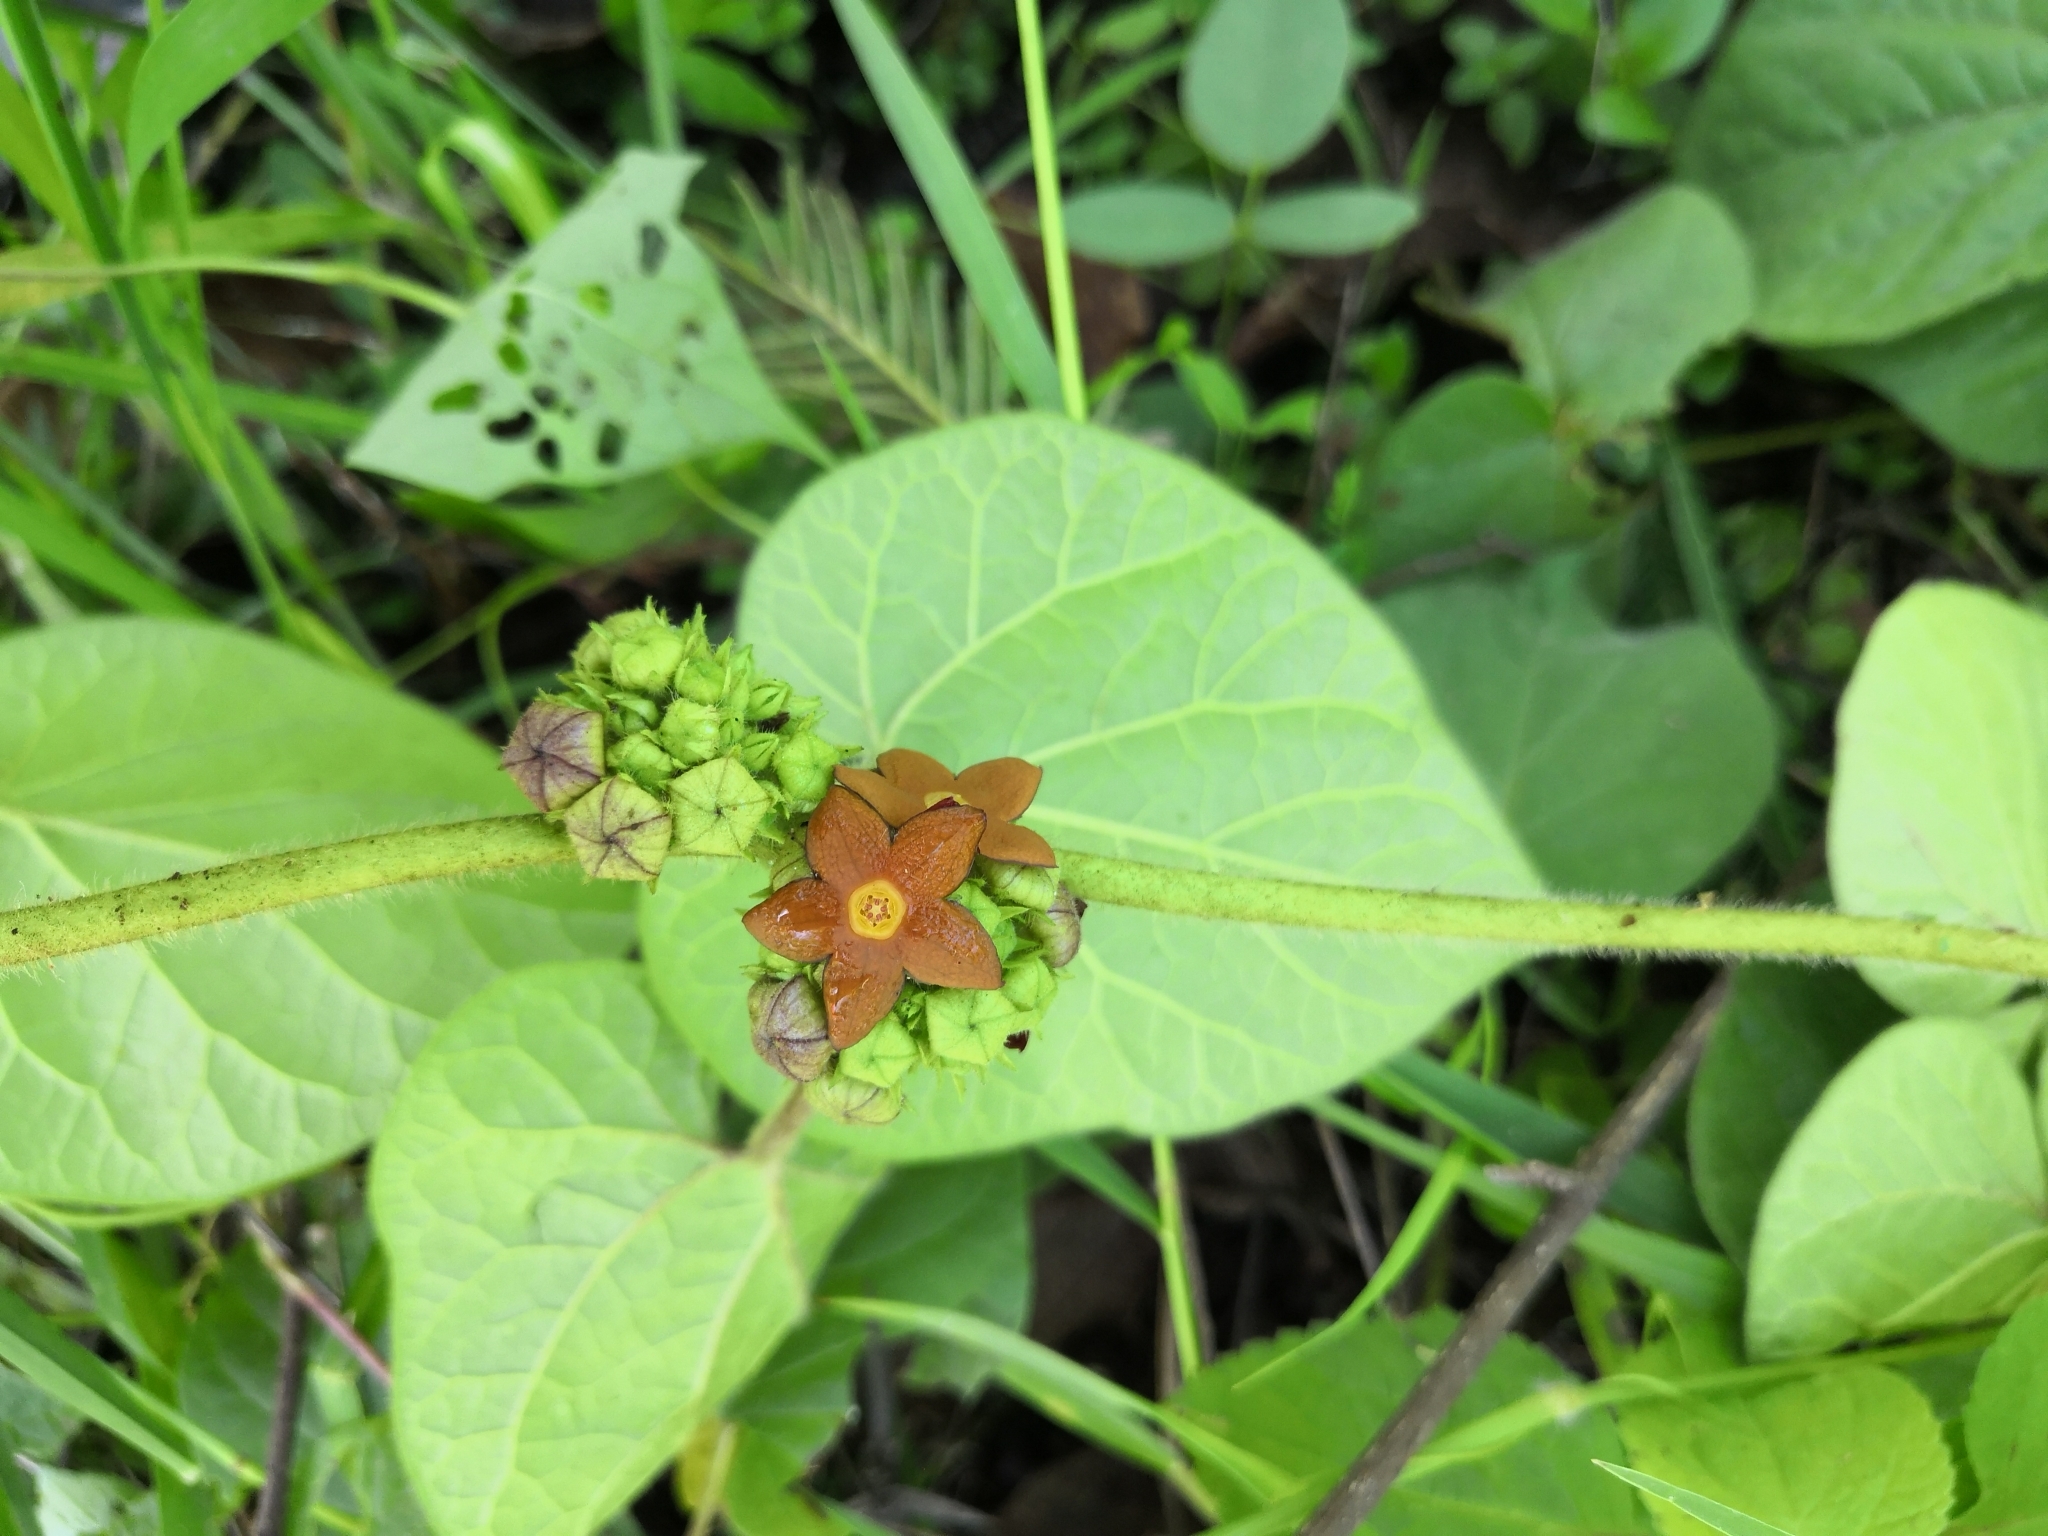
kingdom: Plantae
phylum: Tracheophyta
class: Magnoliopsida
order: Gentianales
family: Apocynaceae
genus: Matelea
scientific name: Matelea congesta
